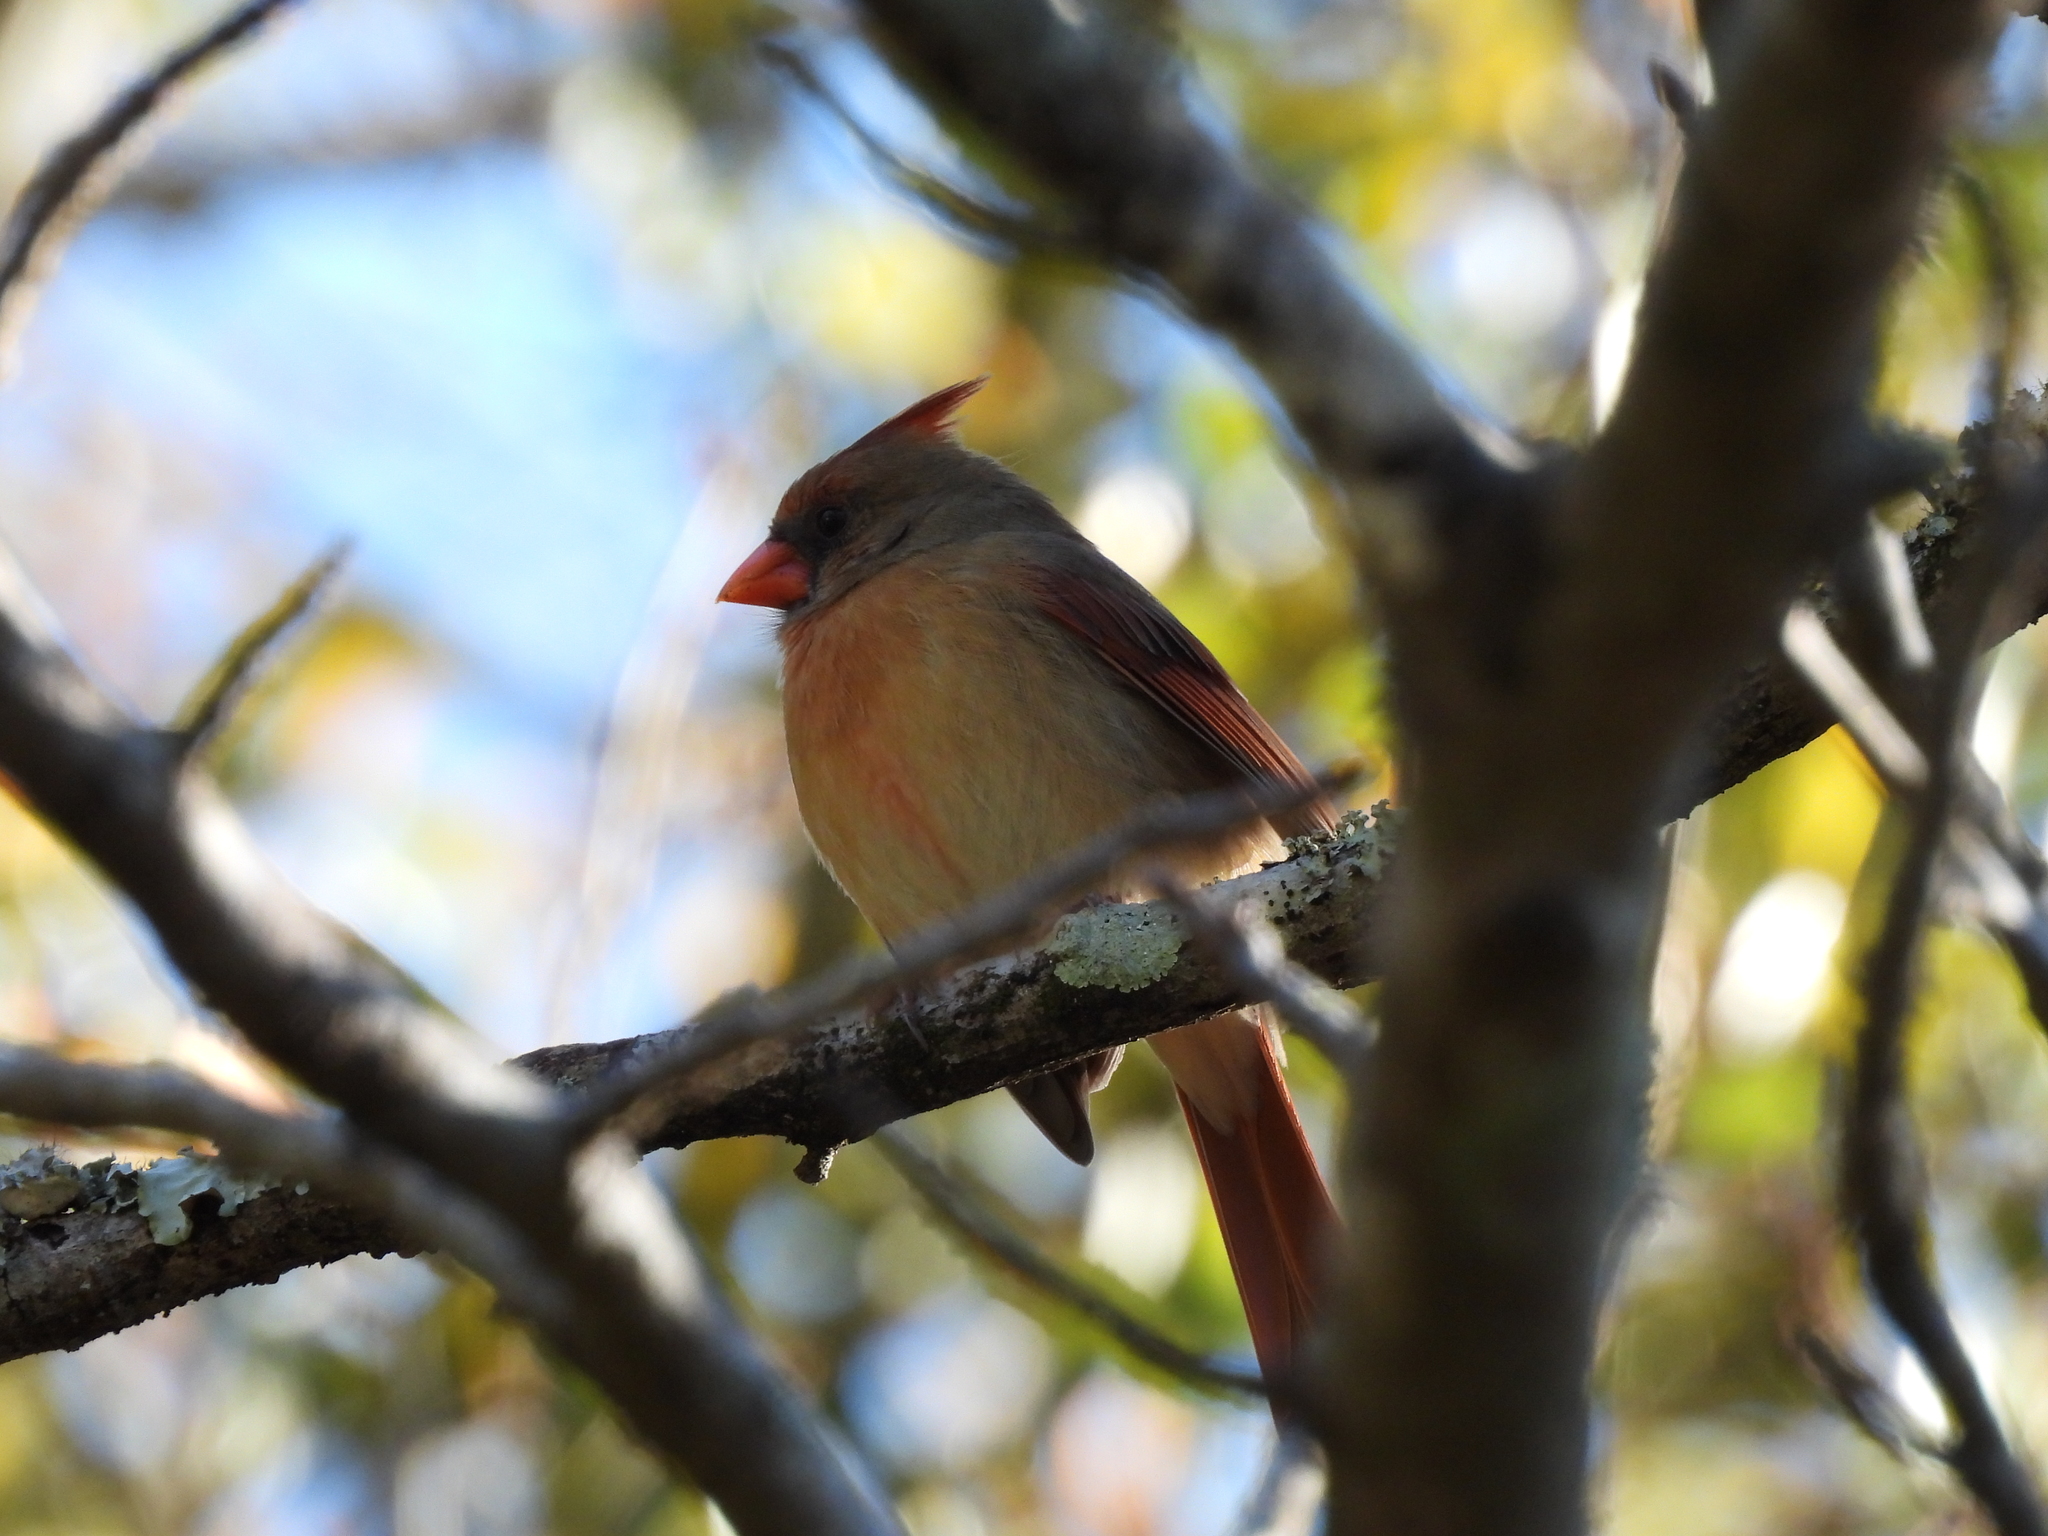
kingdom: Animalia
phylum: Chordata
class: Aves
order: Passeriformes
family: Cardinalidae
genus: Cardinalis
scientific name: Cardinalis cardinalis
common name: Northern cardinal
